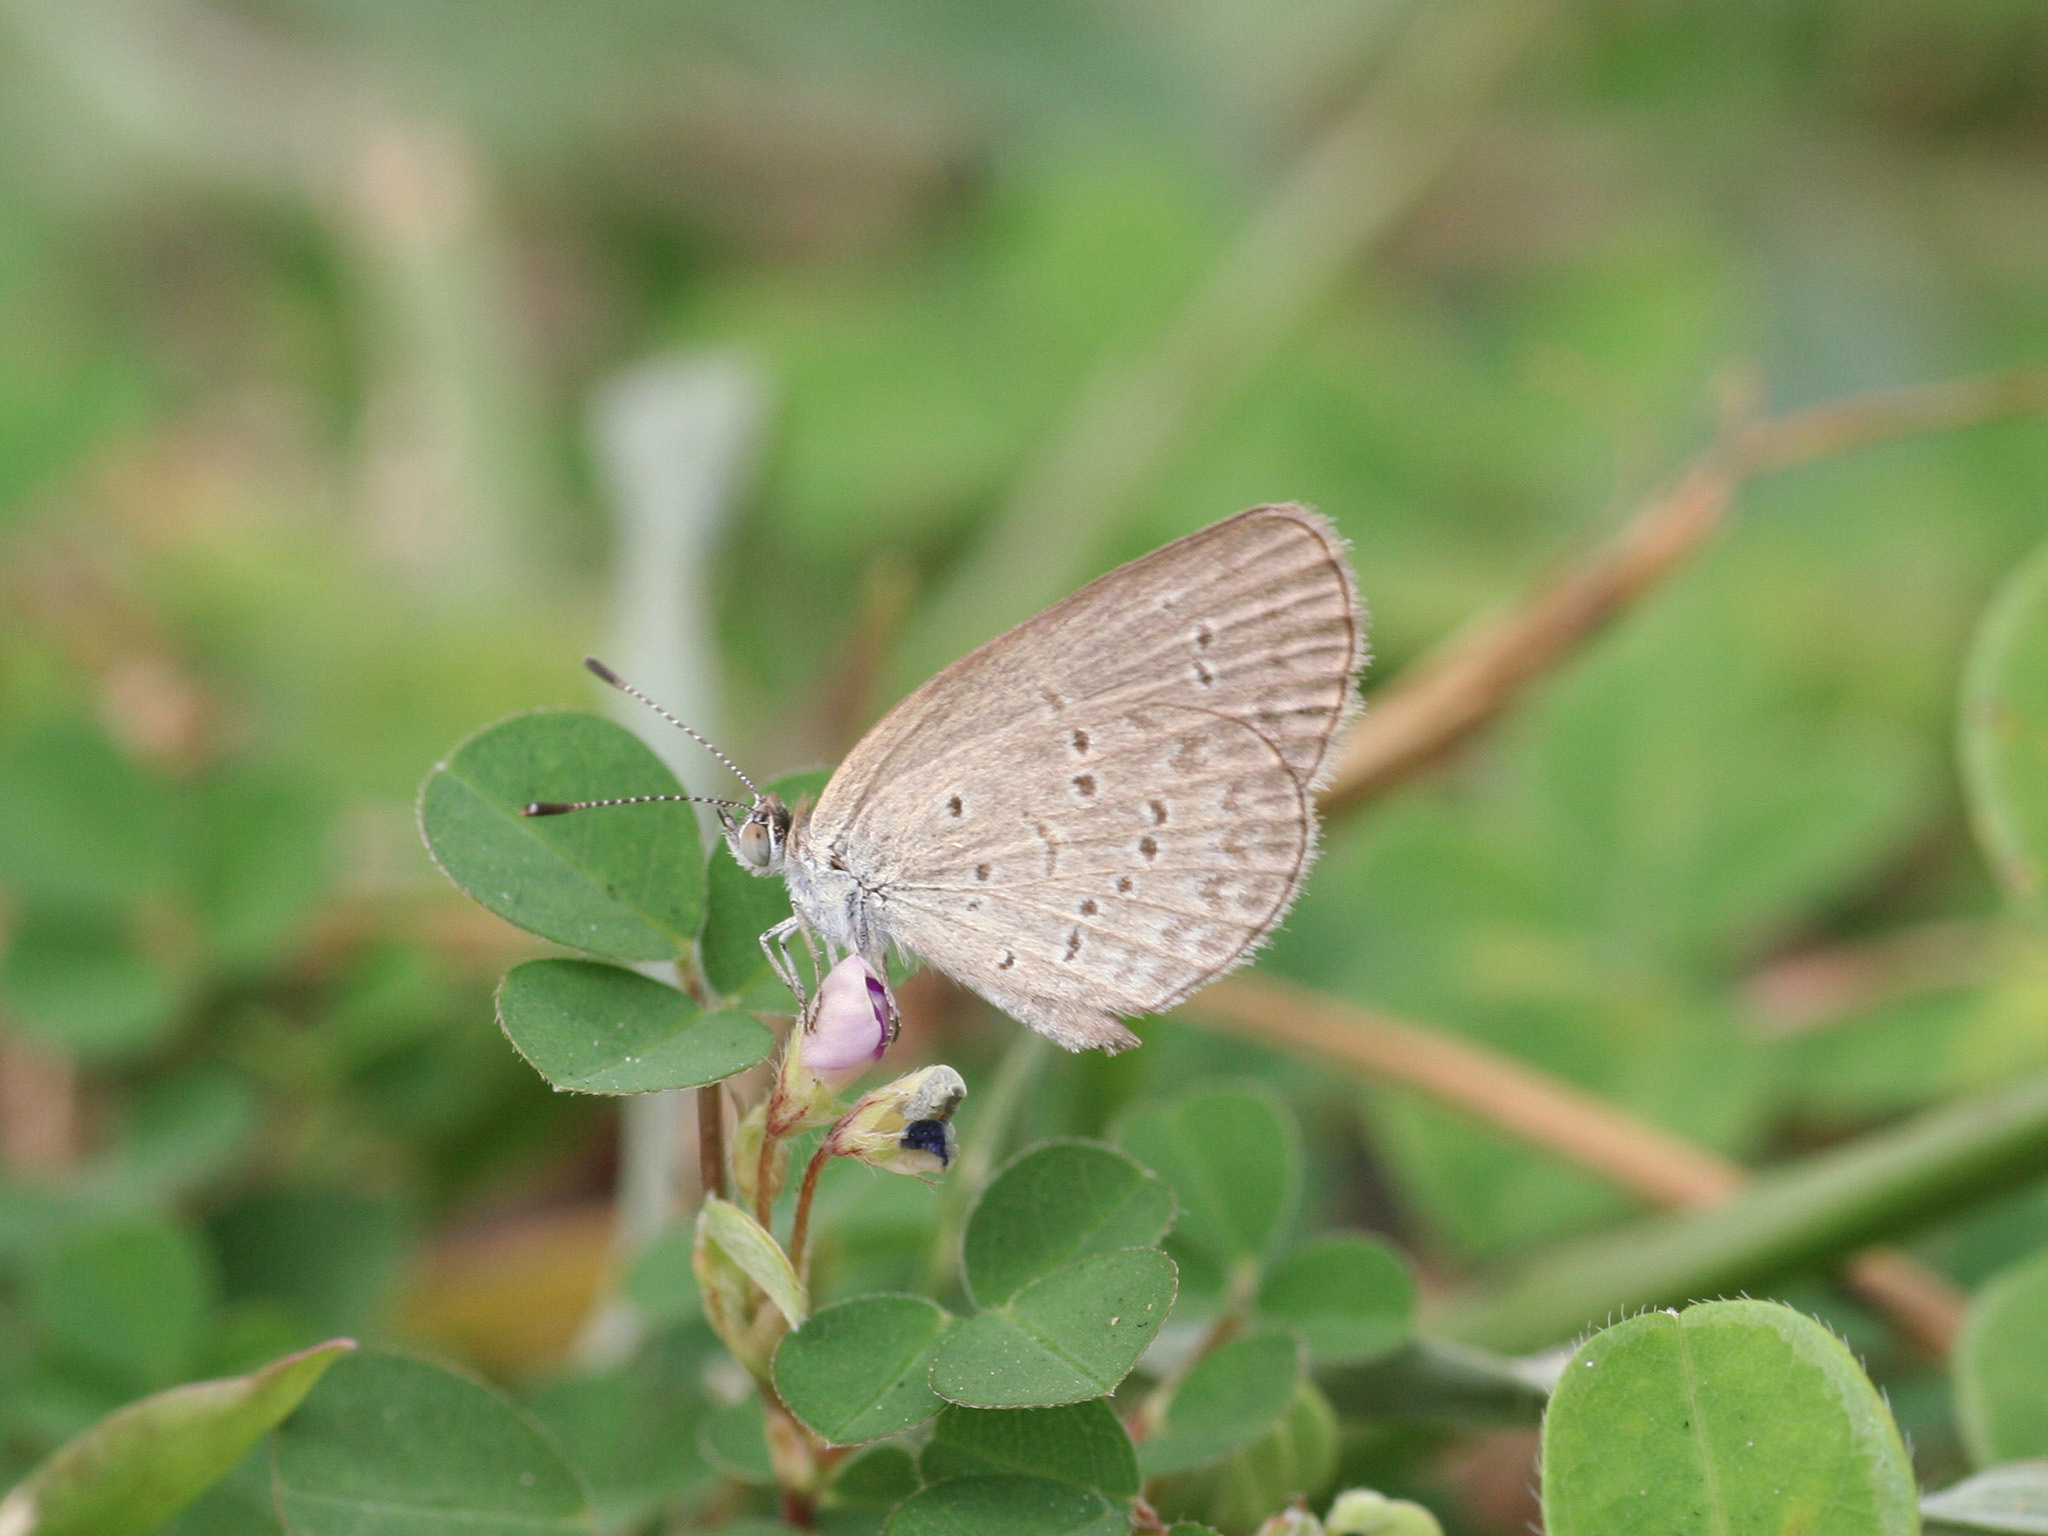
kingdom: Animalia
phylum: Arthropoda
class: Insecta
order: Lepidoptera
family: Lycaenidae
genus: Zizina
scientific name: Zizina otis
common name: Lesser grass blue
